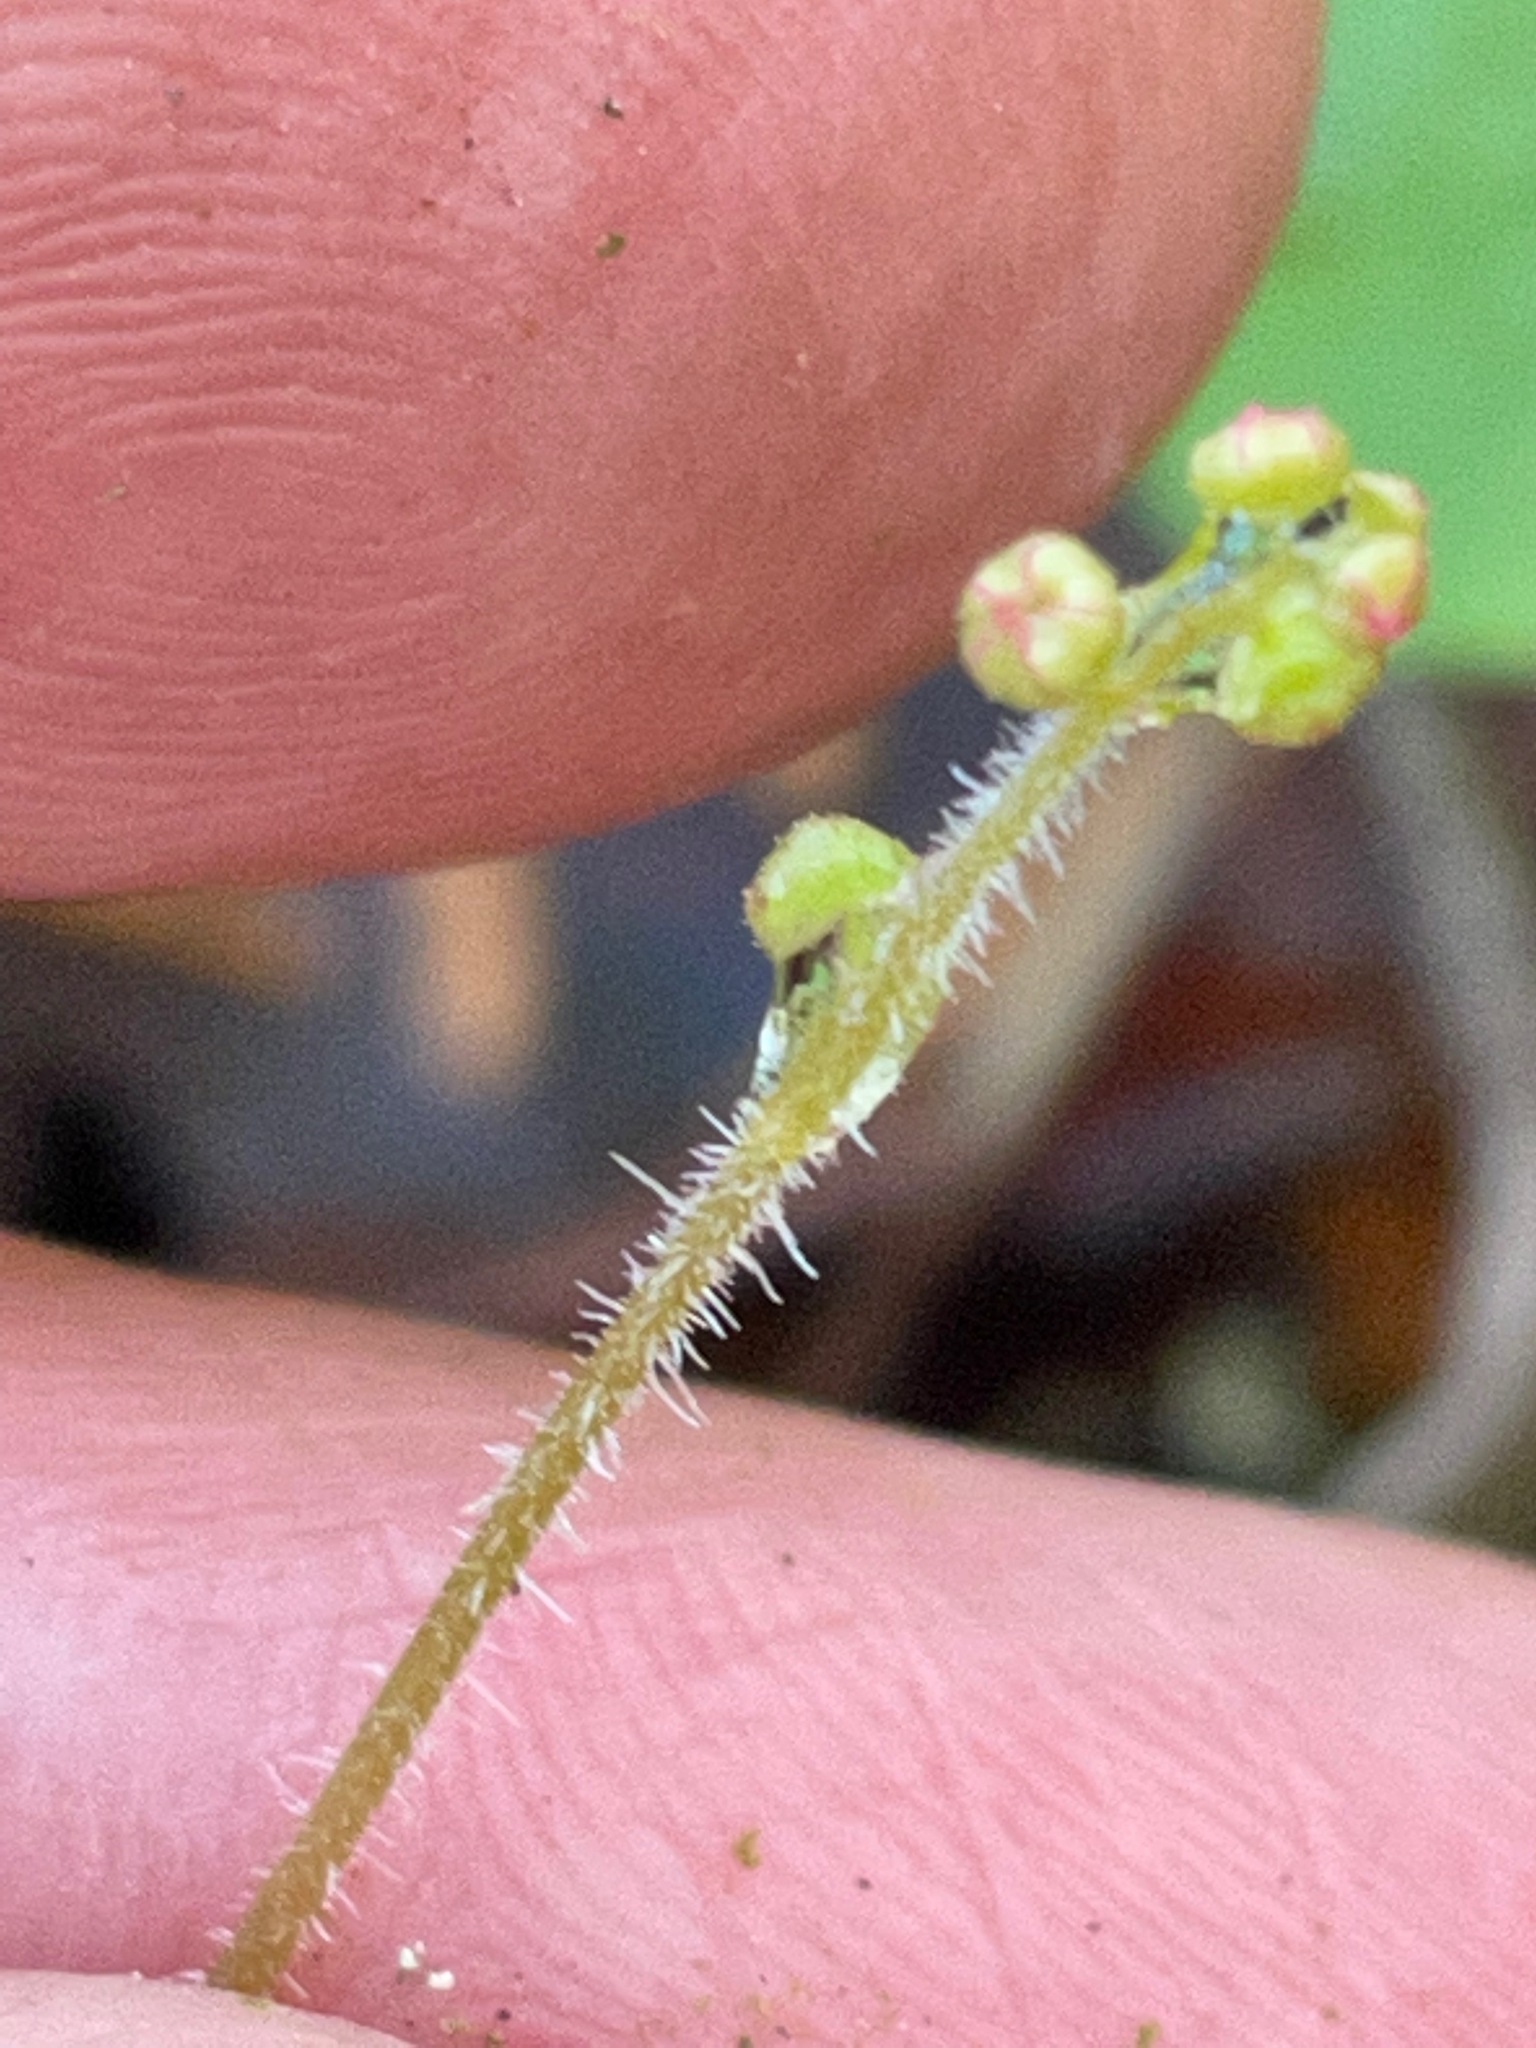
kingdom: Plantae
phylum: Tracheophyta
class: Magnoliopsida
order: Saxifragales
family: Saxifragaceae
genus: Mitella
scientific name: Mitella nuda
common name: Bare-stemmed bishop's-cap
